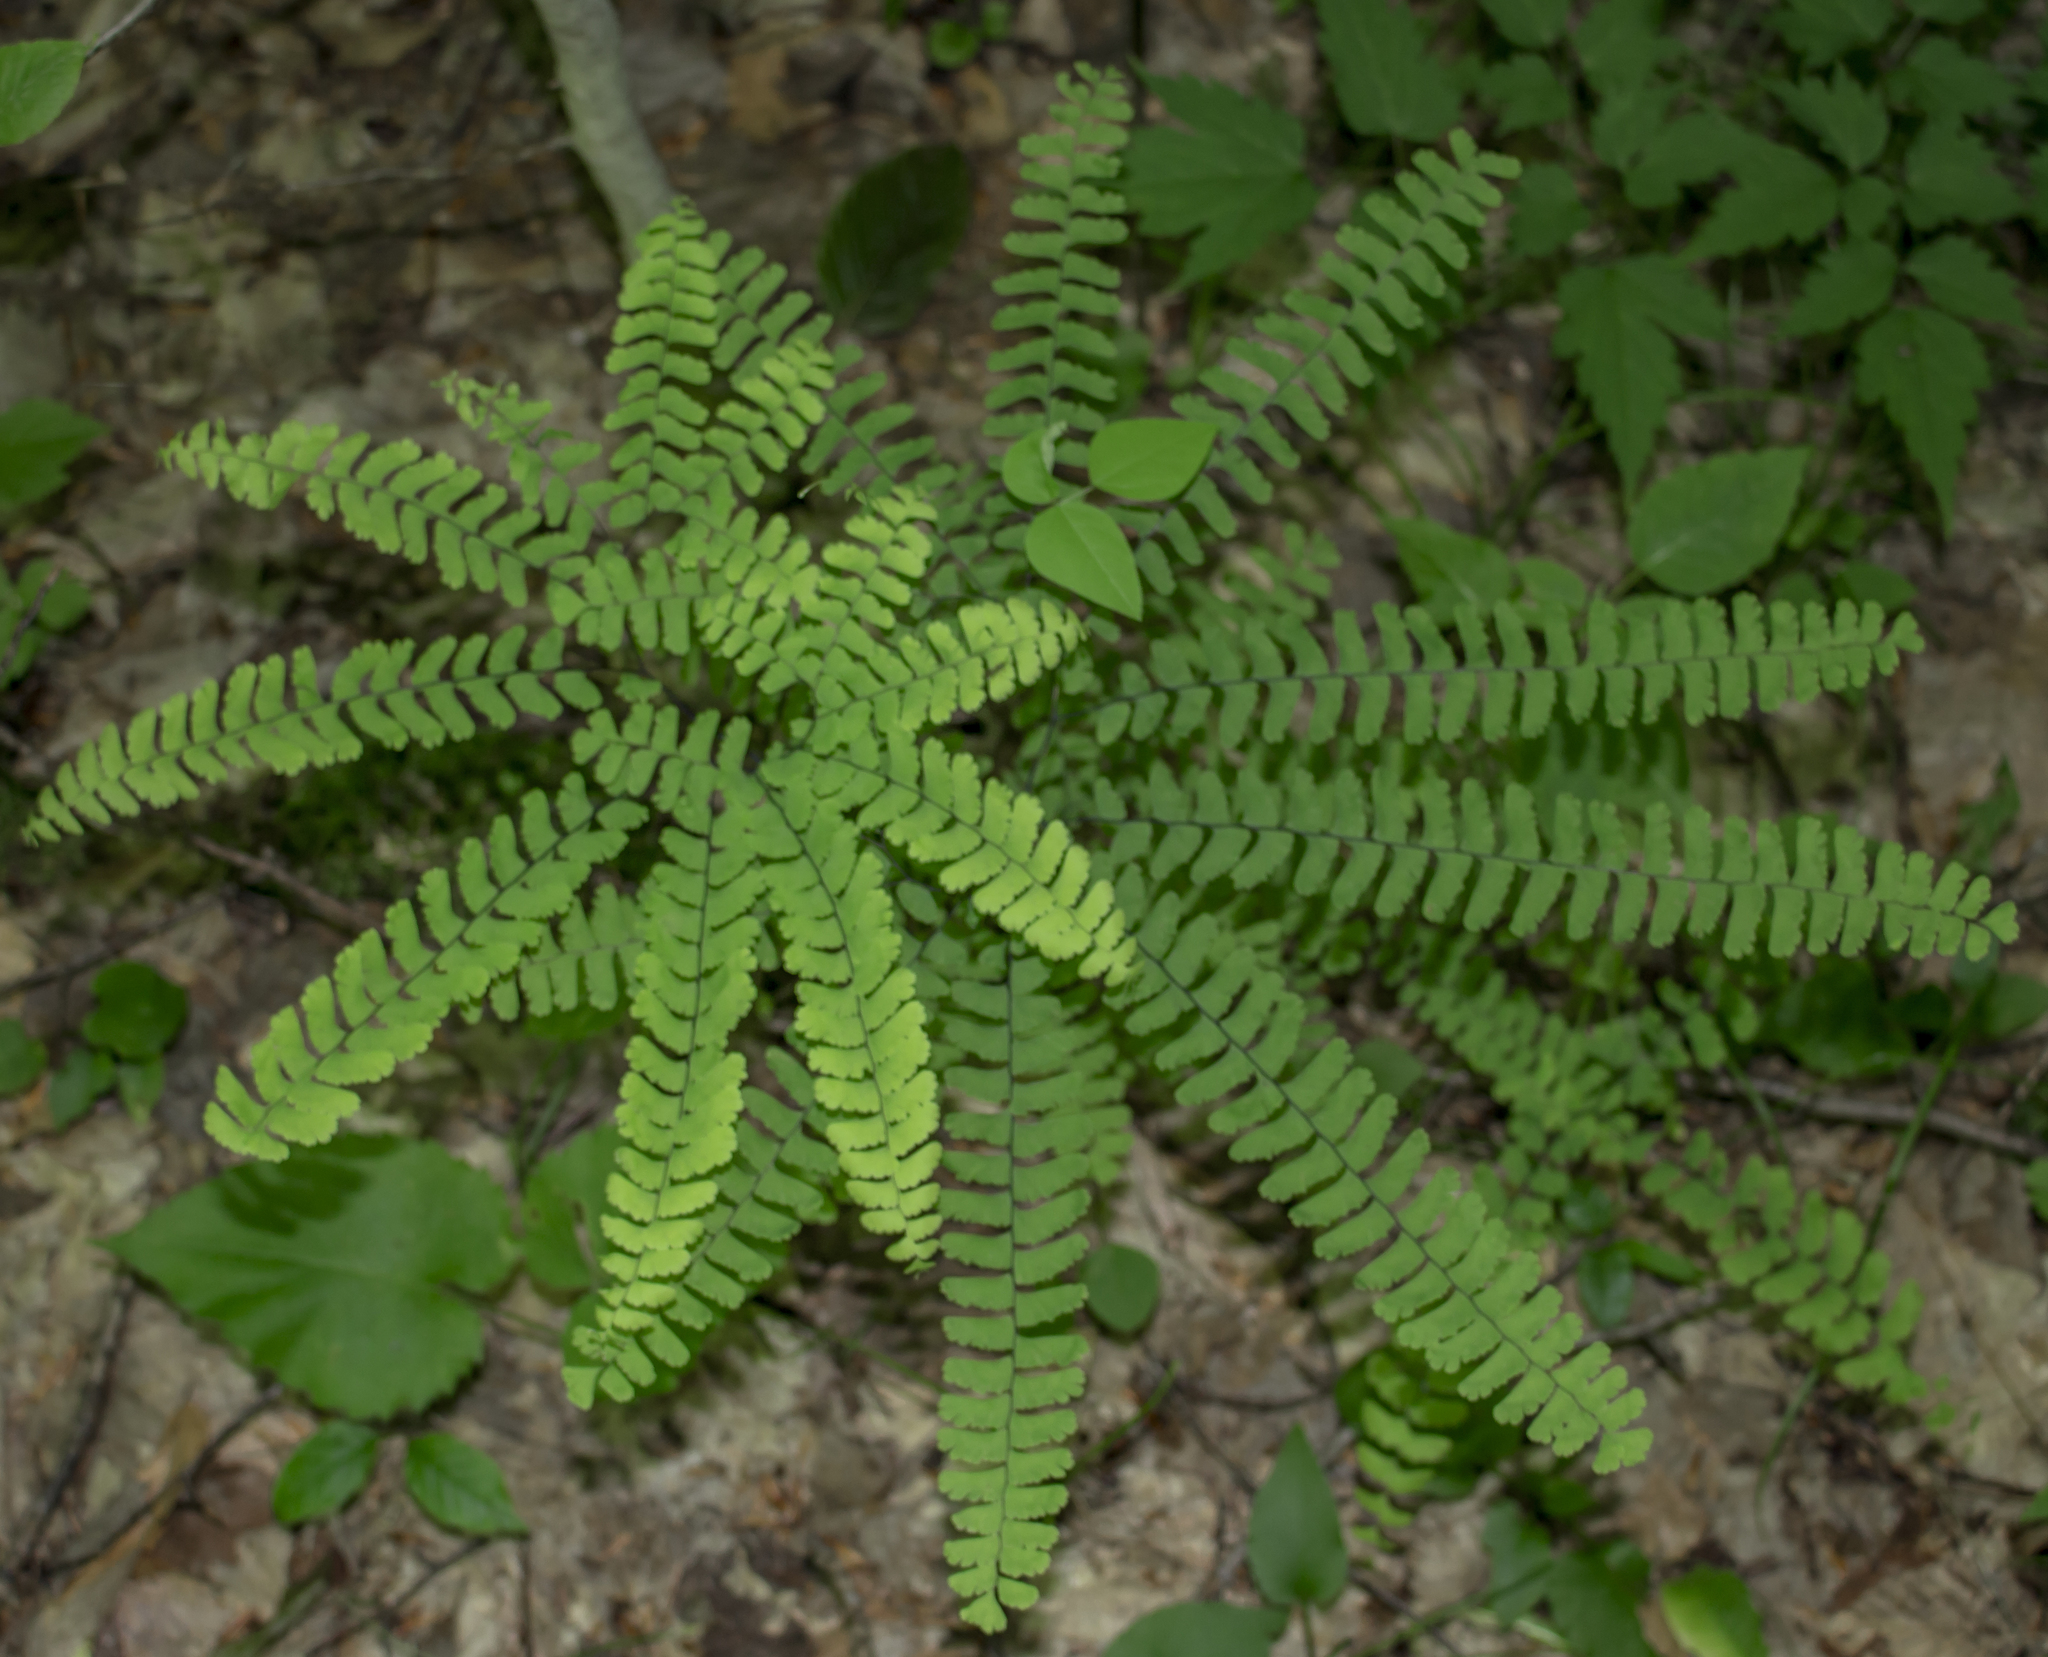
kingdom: Plantae
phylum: Tracheophyta
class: Polypodiopsida
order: Polypodiales
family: Pteridaceae
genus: Adiantum
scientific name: Adiantum pedatum
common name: Five-finger fern
